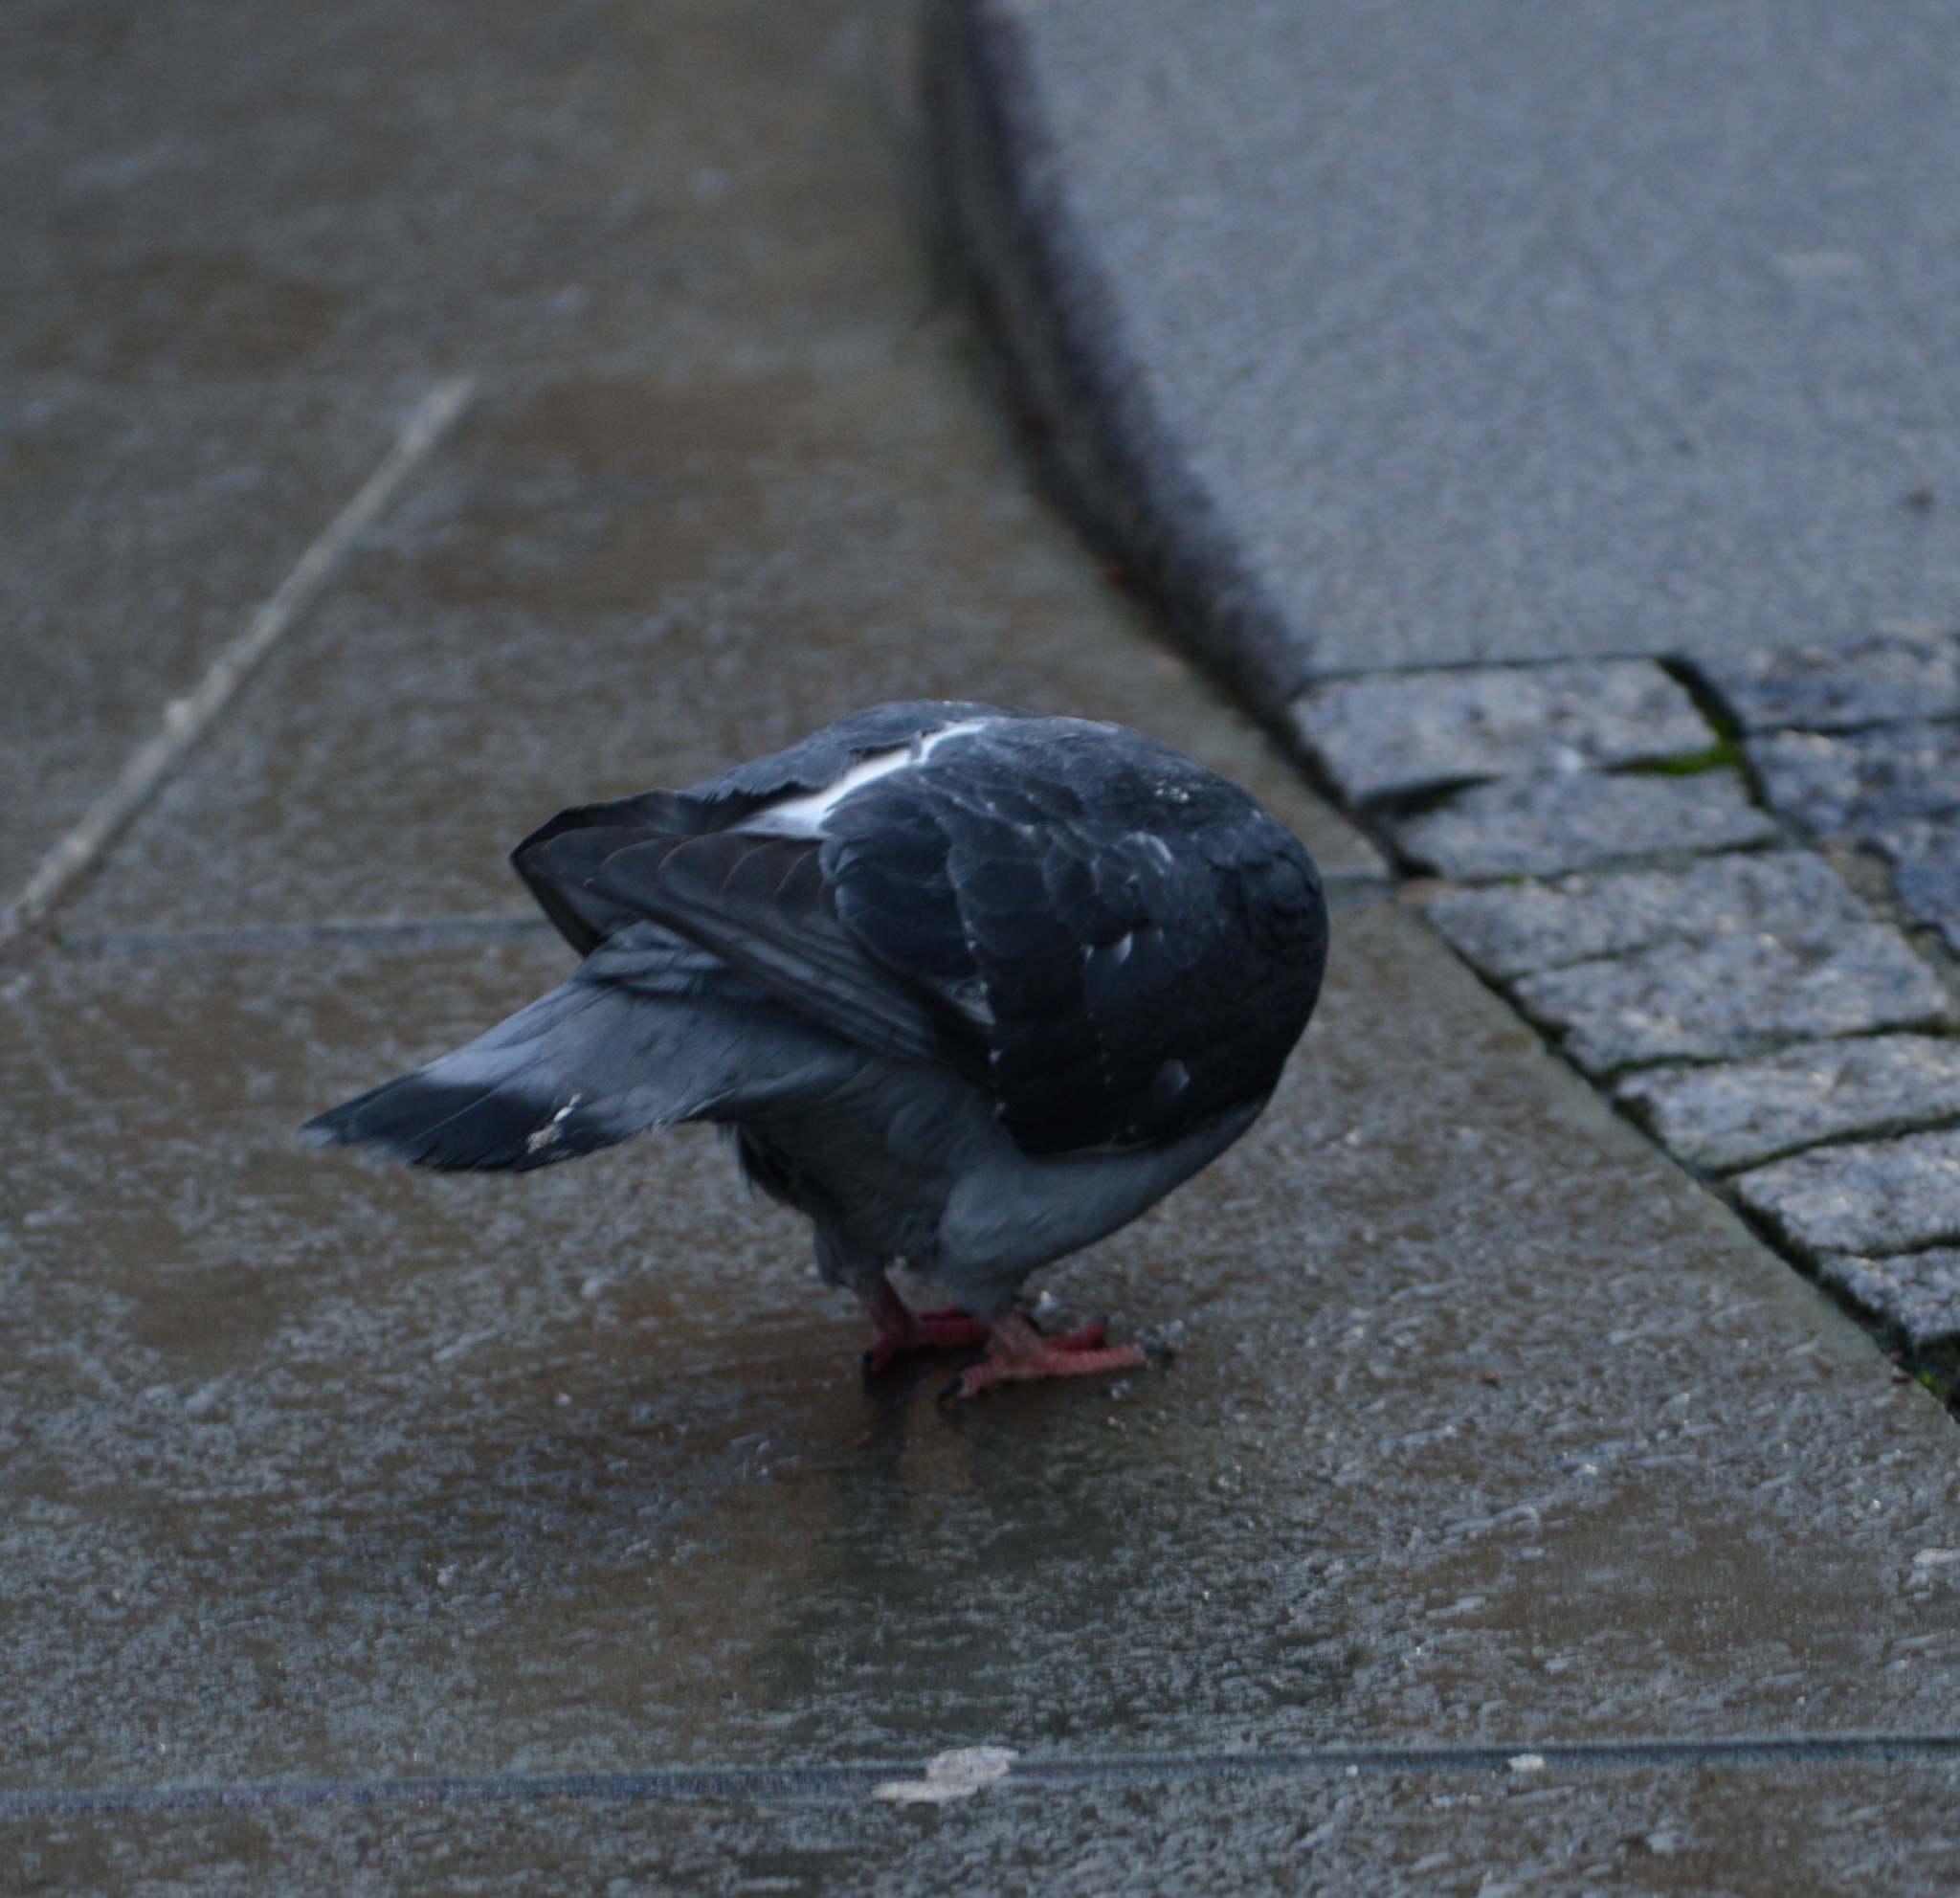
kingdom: Animalia
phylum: Chordata
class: Aves
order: Columbiformes
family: Columbidae
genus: Columba
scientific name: Columba livia
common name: Rock pigeon
